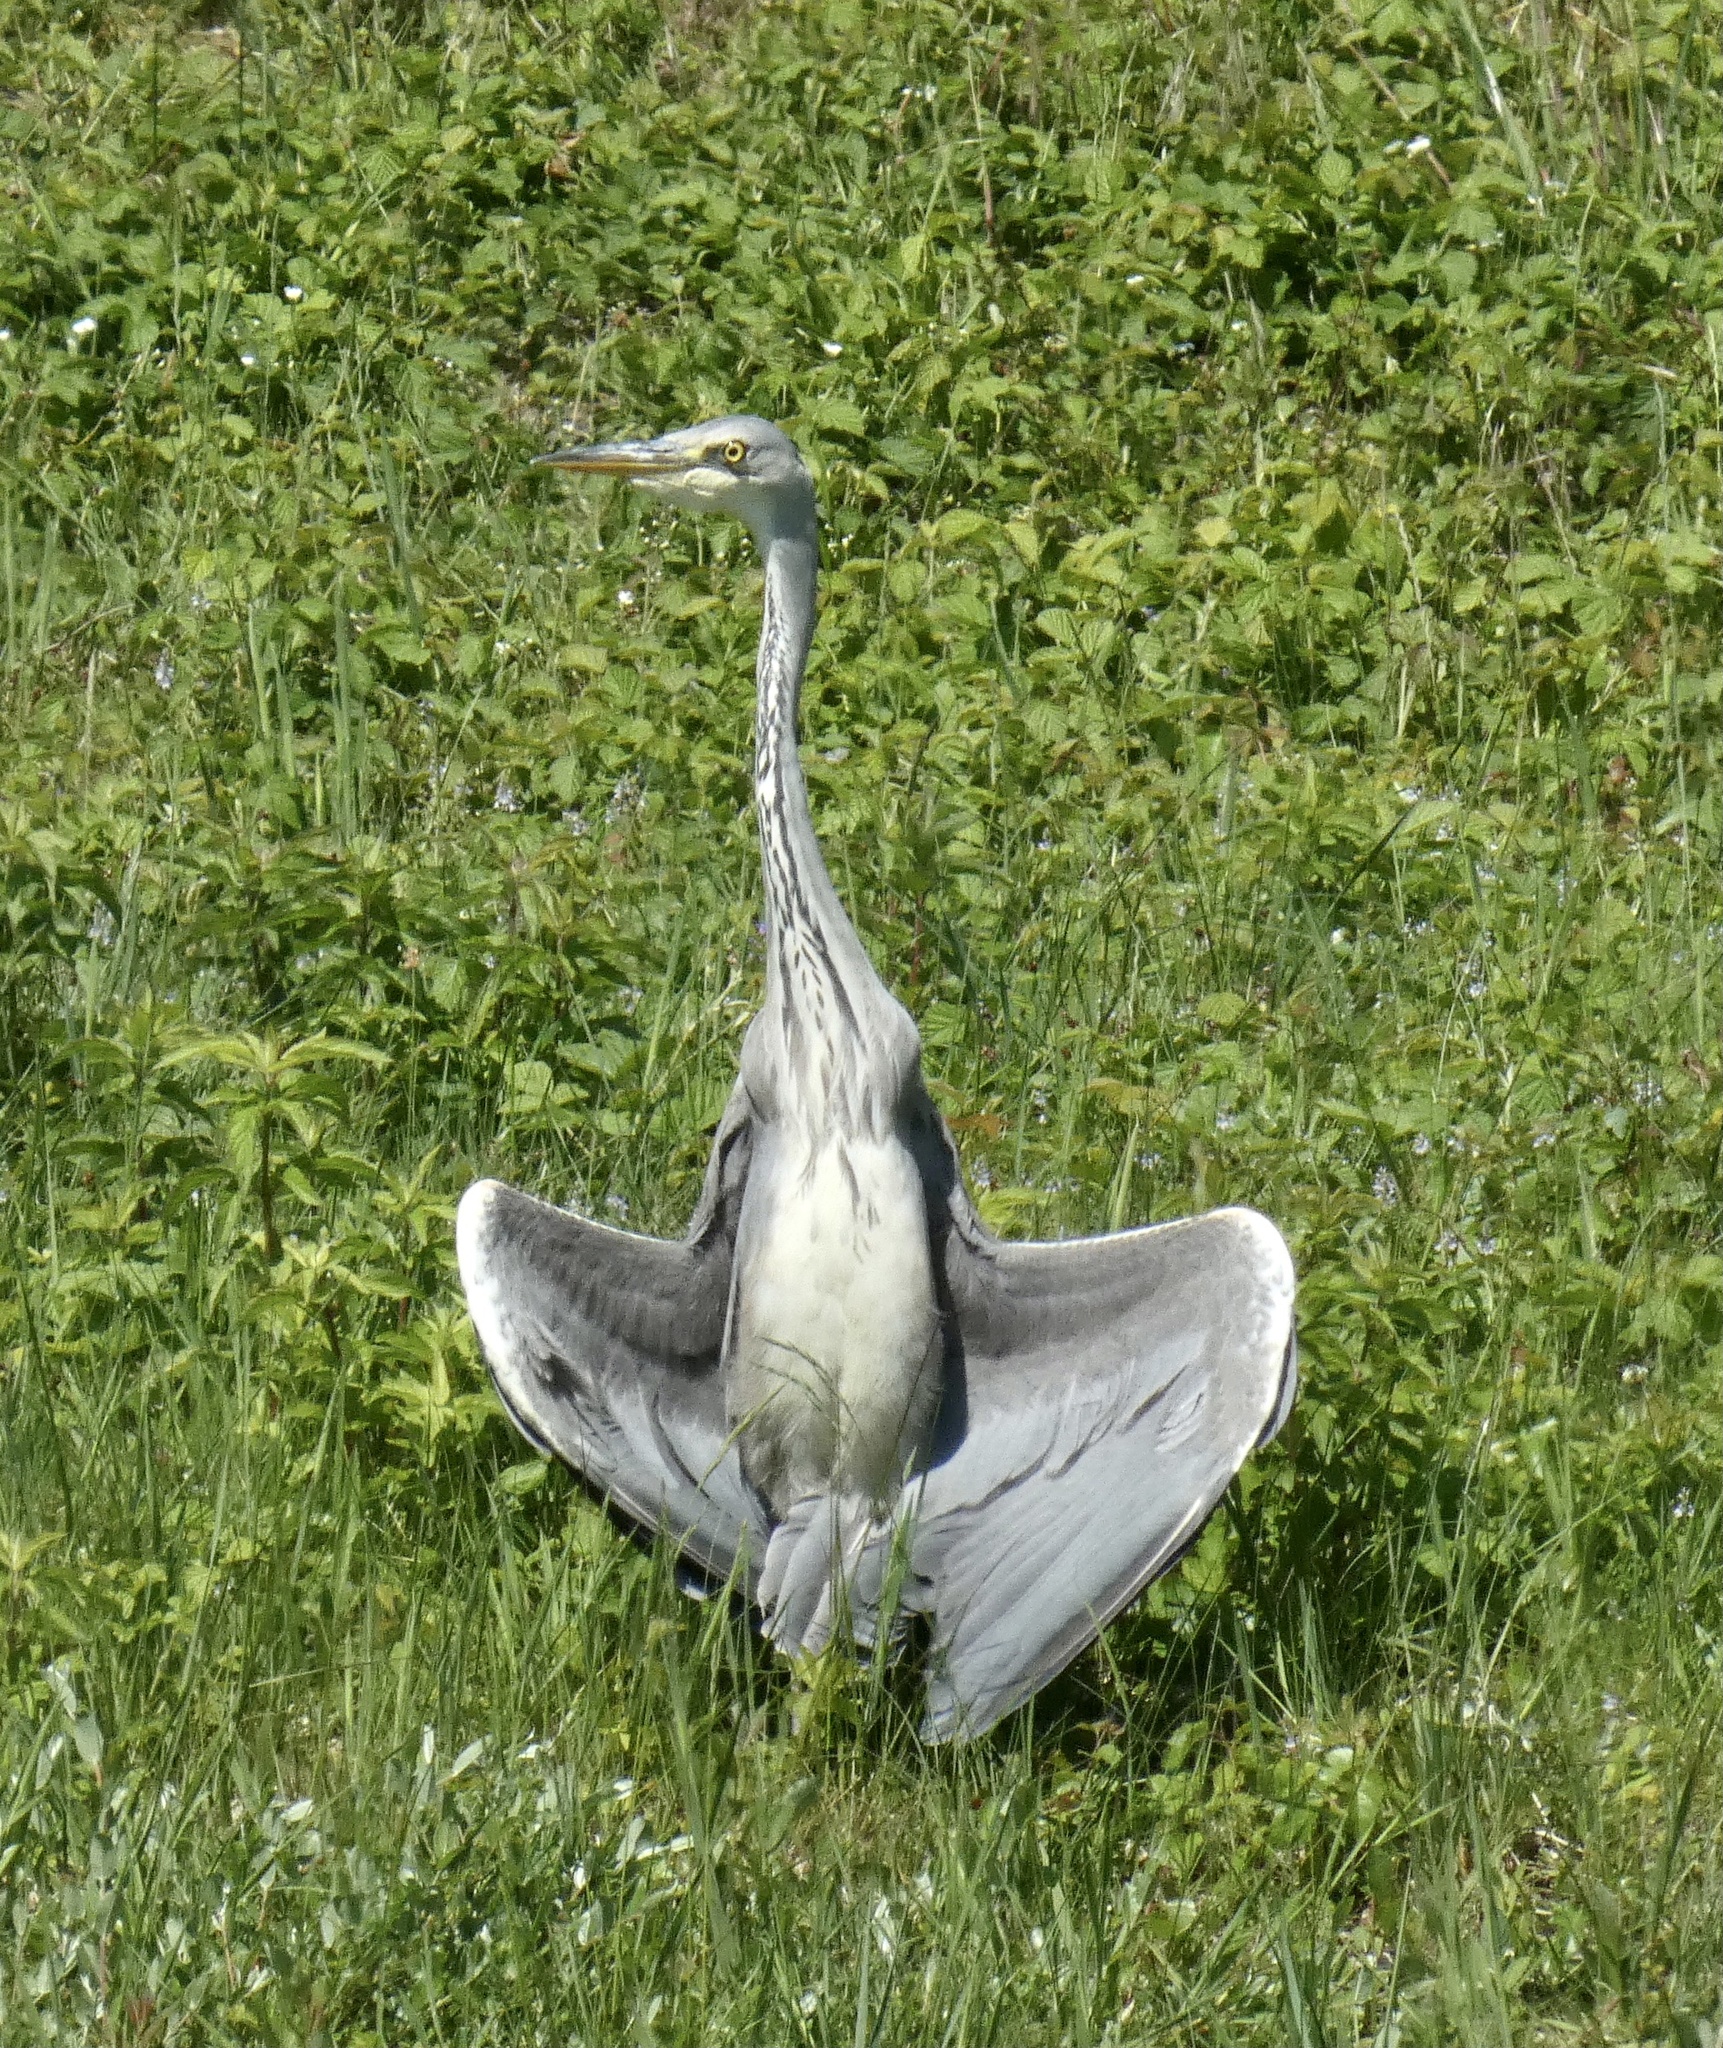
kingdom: Animalia
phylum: Chordata
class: Aves
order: Pelecaniformes
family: Ardeidae
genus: Ardea
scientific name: Ardea cinerea
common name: Grey heron
